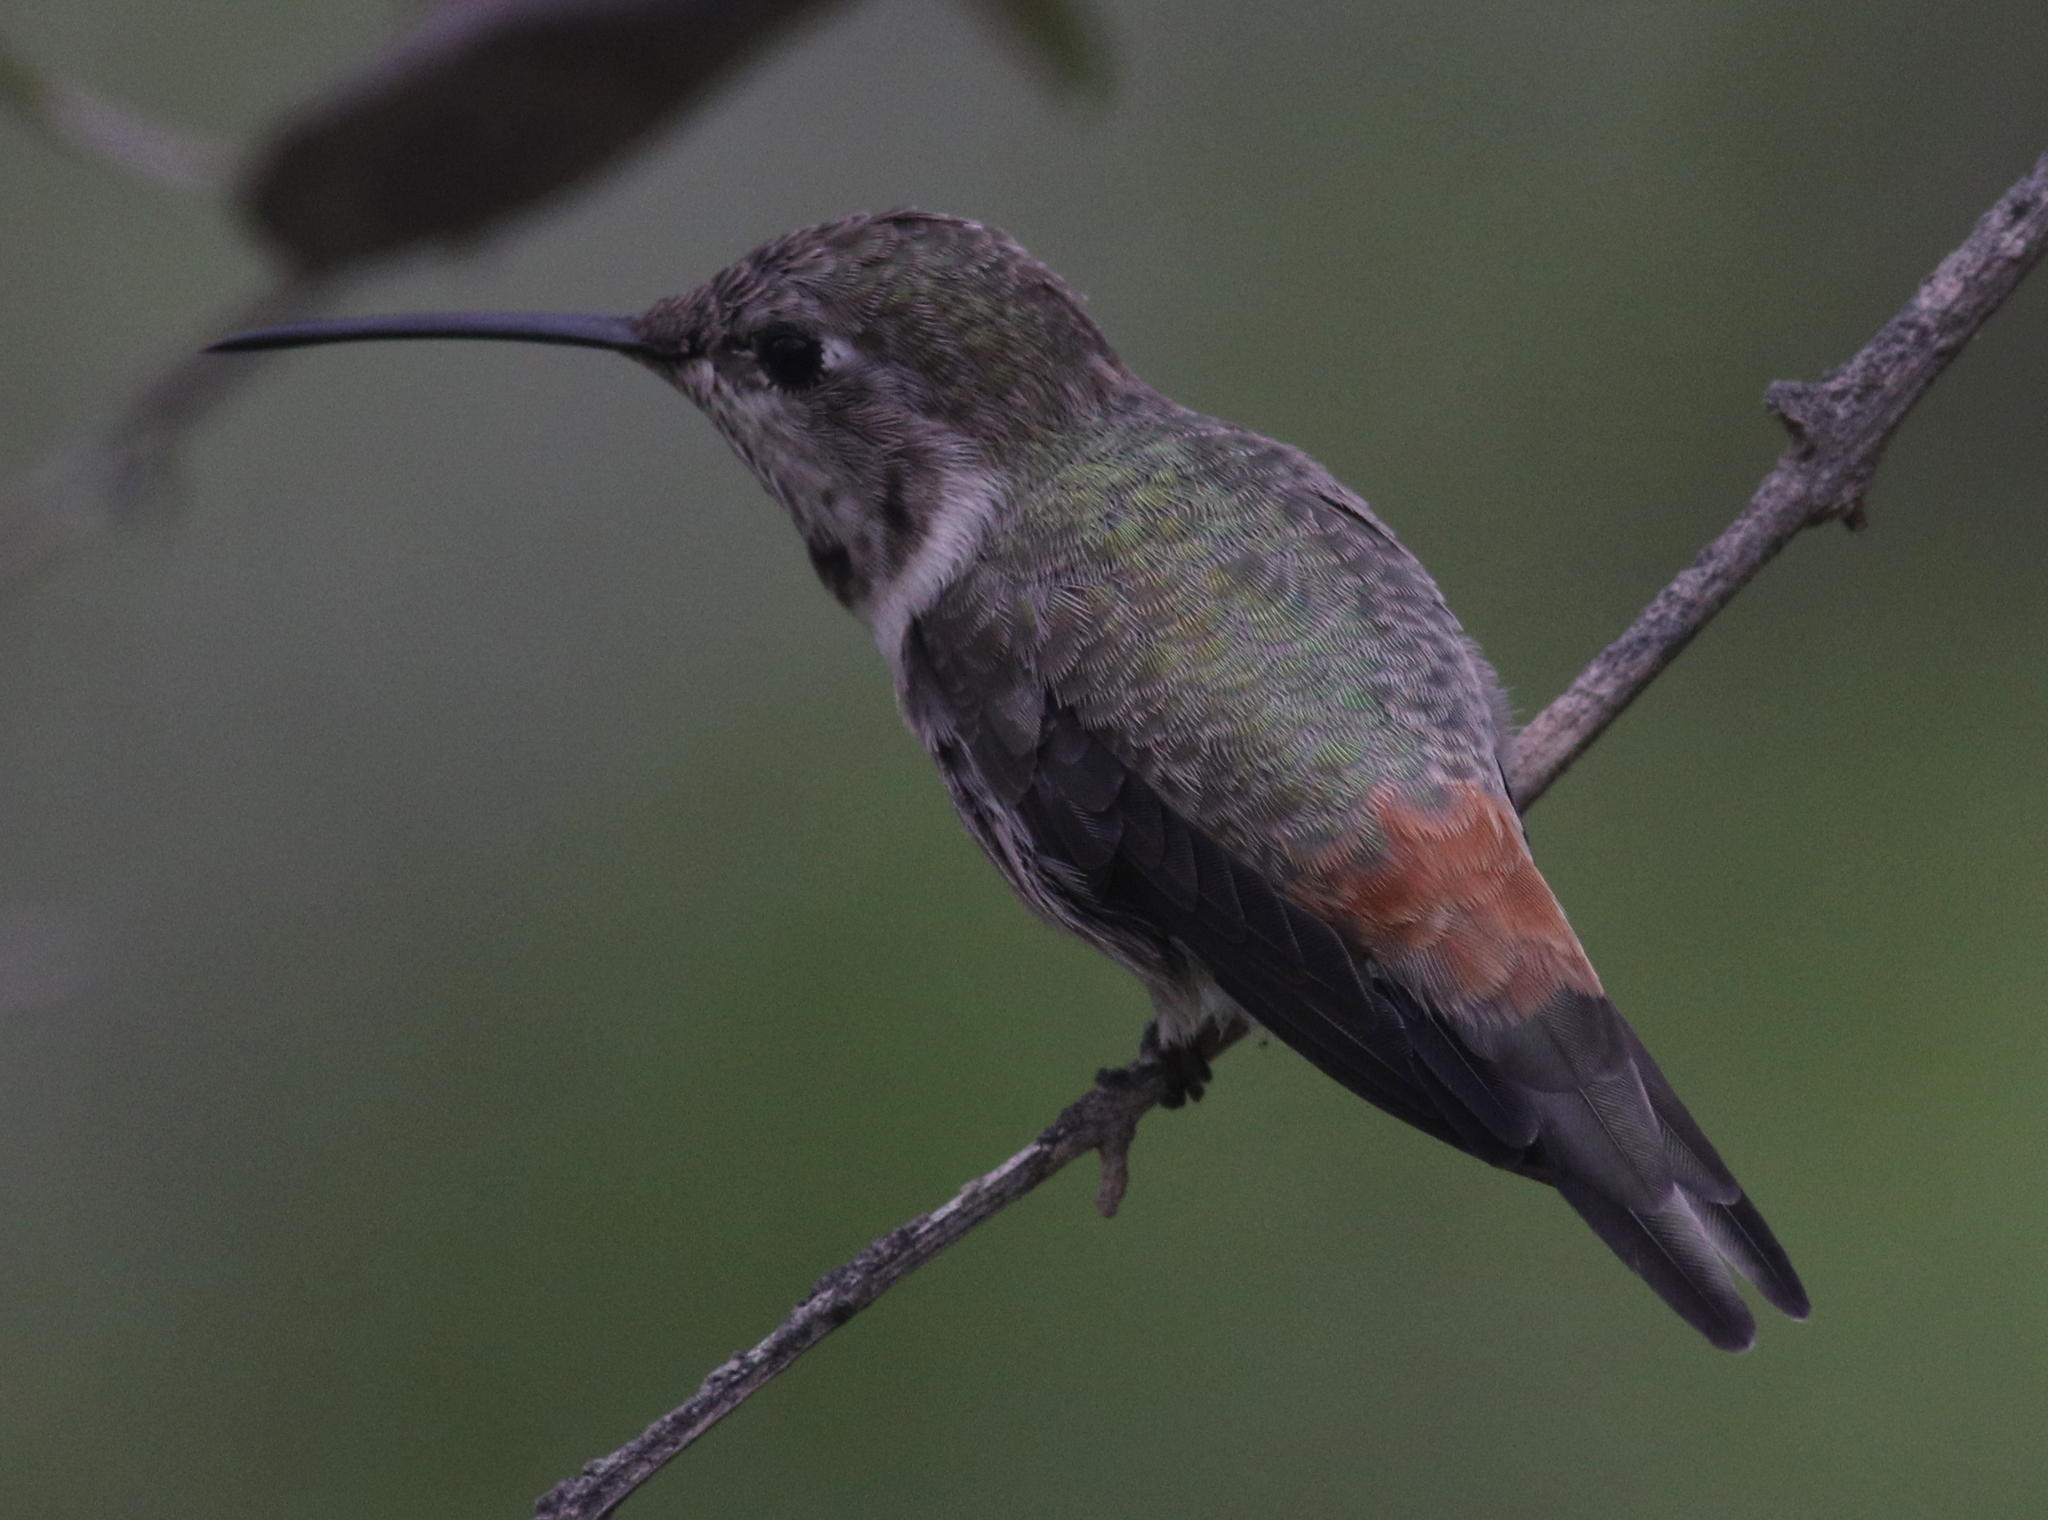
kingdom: Animalia
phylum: Chordata
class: Aves
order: Apodiformes
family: Trochilidae
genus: Rhodopis
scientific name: Rhodopis vesper
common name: Oasis hummingbird
